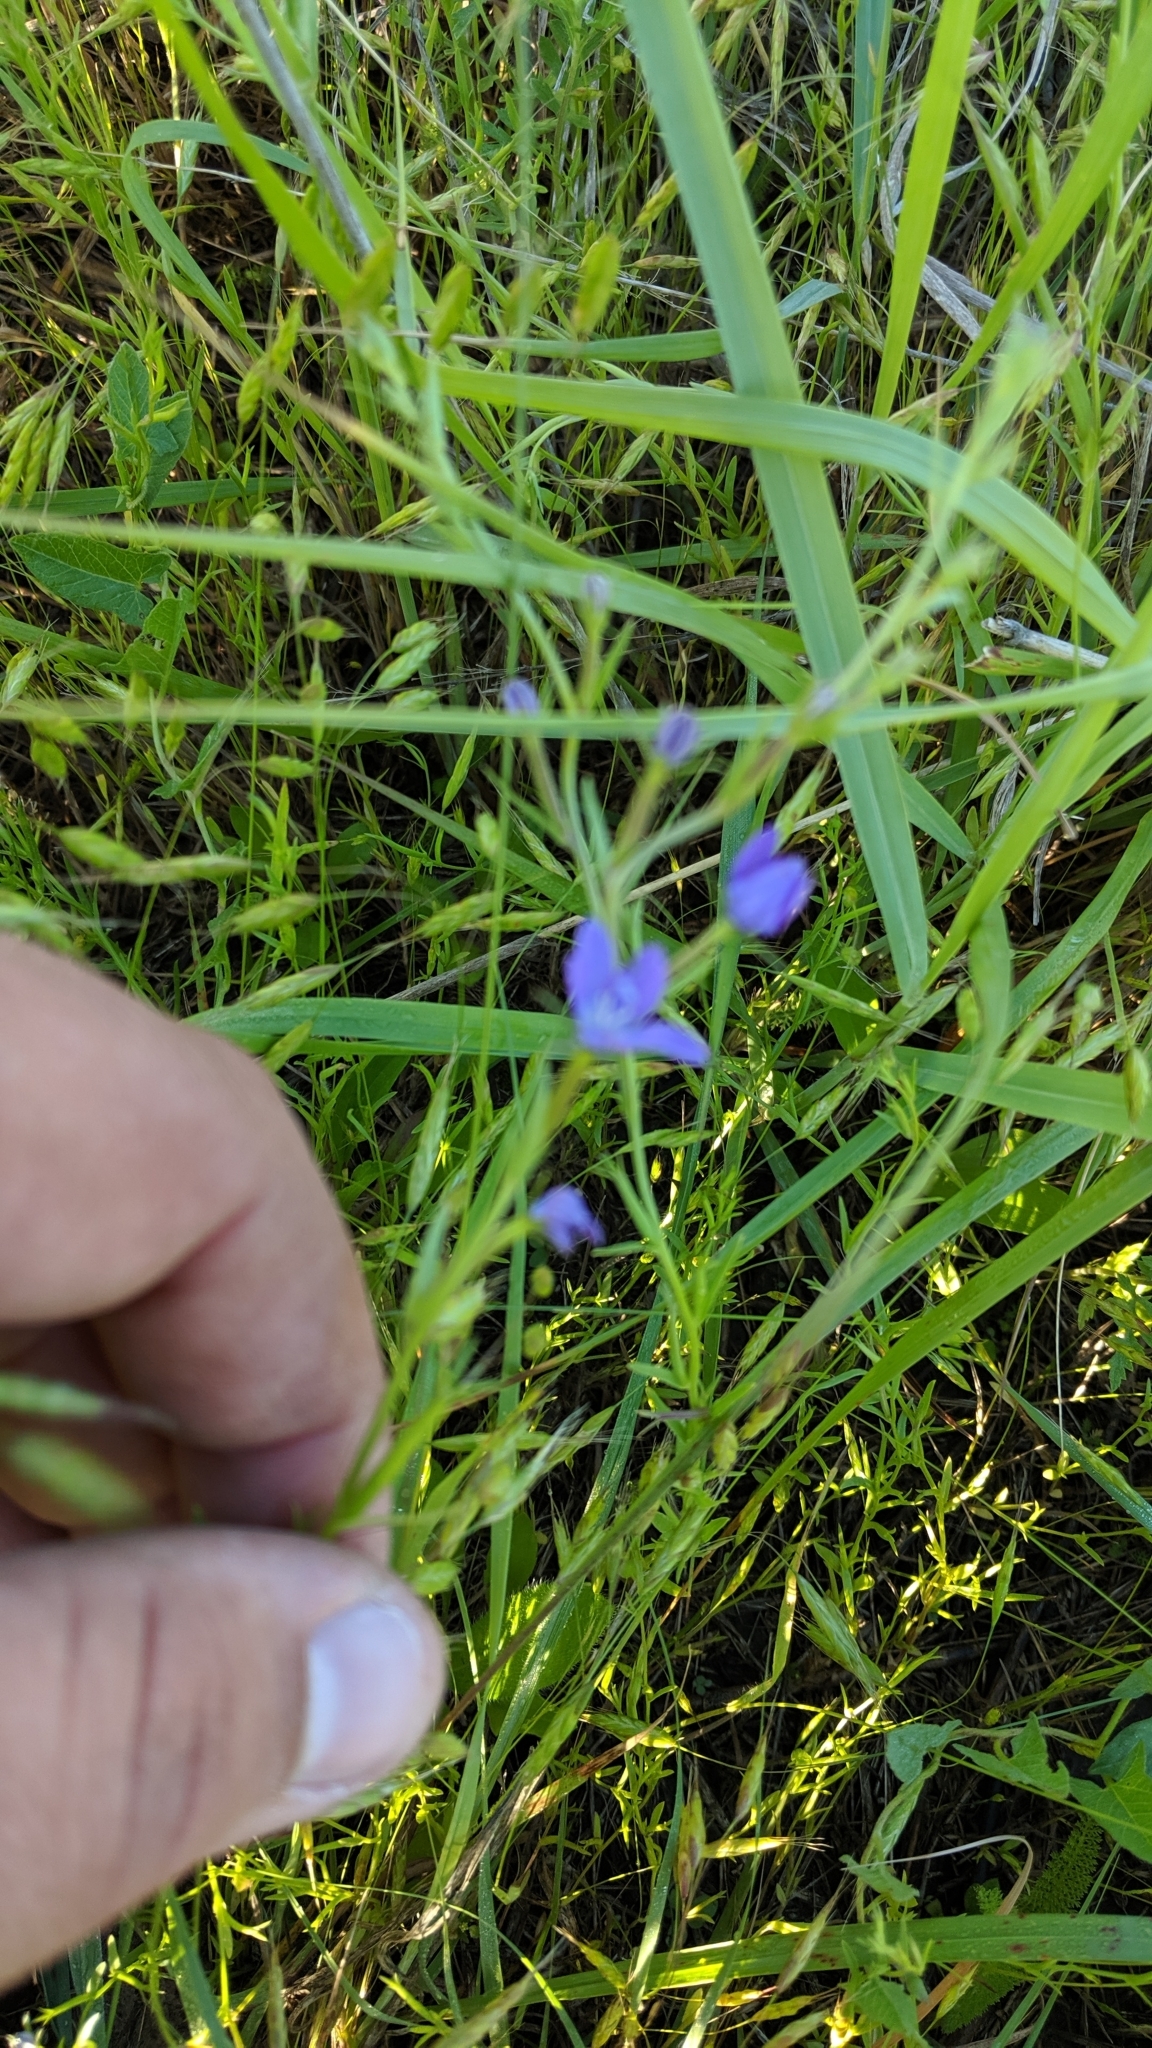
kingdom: Plantae
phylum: Tracheophyta
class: Magnoliopsida
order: Asterales
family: Campanulaceae
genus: Triodanis
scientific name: Triodanis leptocarpa
